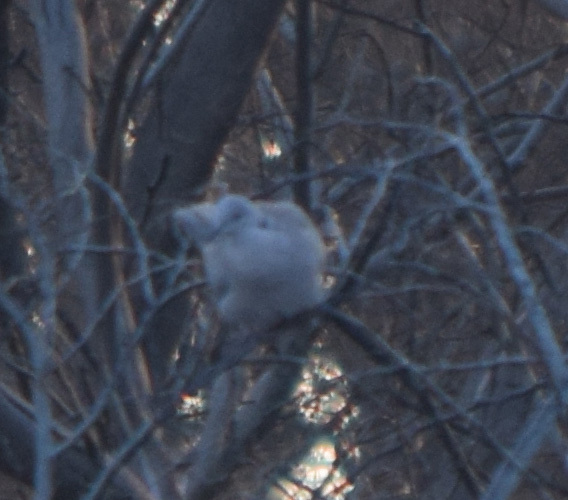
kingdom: Animalia
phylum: Chordata
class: Aves
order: Columbiformes
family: Columbidae
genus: Streptopelia
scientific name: Streptopelia decaocto
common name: Eurasian collared dove
